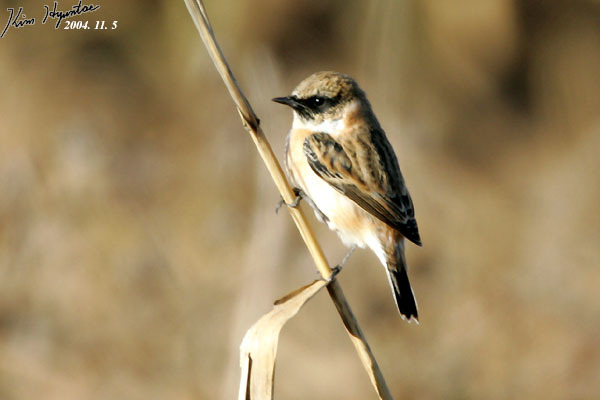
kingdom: Animalia
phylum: Chordata
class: Aves
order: Passeriformes
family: Muscicapidae
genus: Saxicola
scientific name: Saxicola stejnegeri
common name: Stejneger's stonechat
